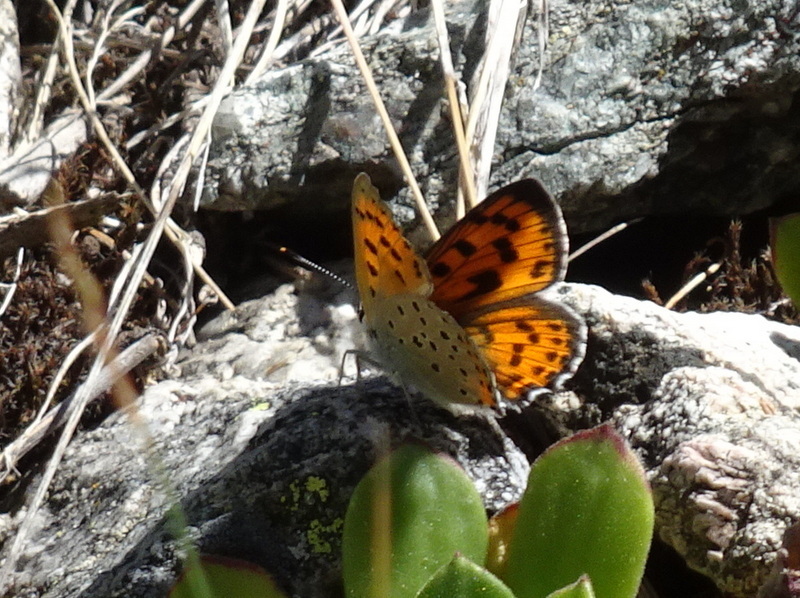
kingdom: Animalia
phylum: Arthropoda
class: Insecta
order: Lepidoptera
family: Lycaenidae
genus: Lycaena
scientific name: Lycaena alciphron
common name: Purple-shot copper
